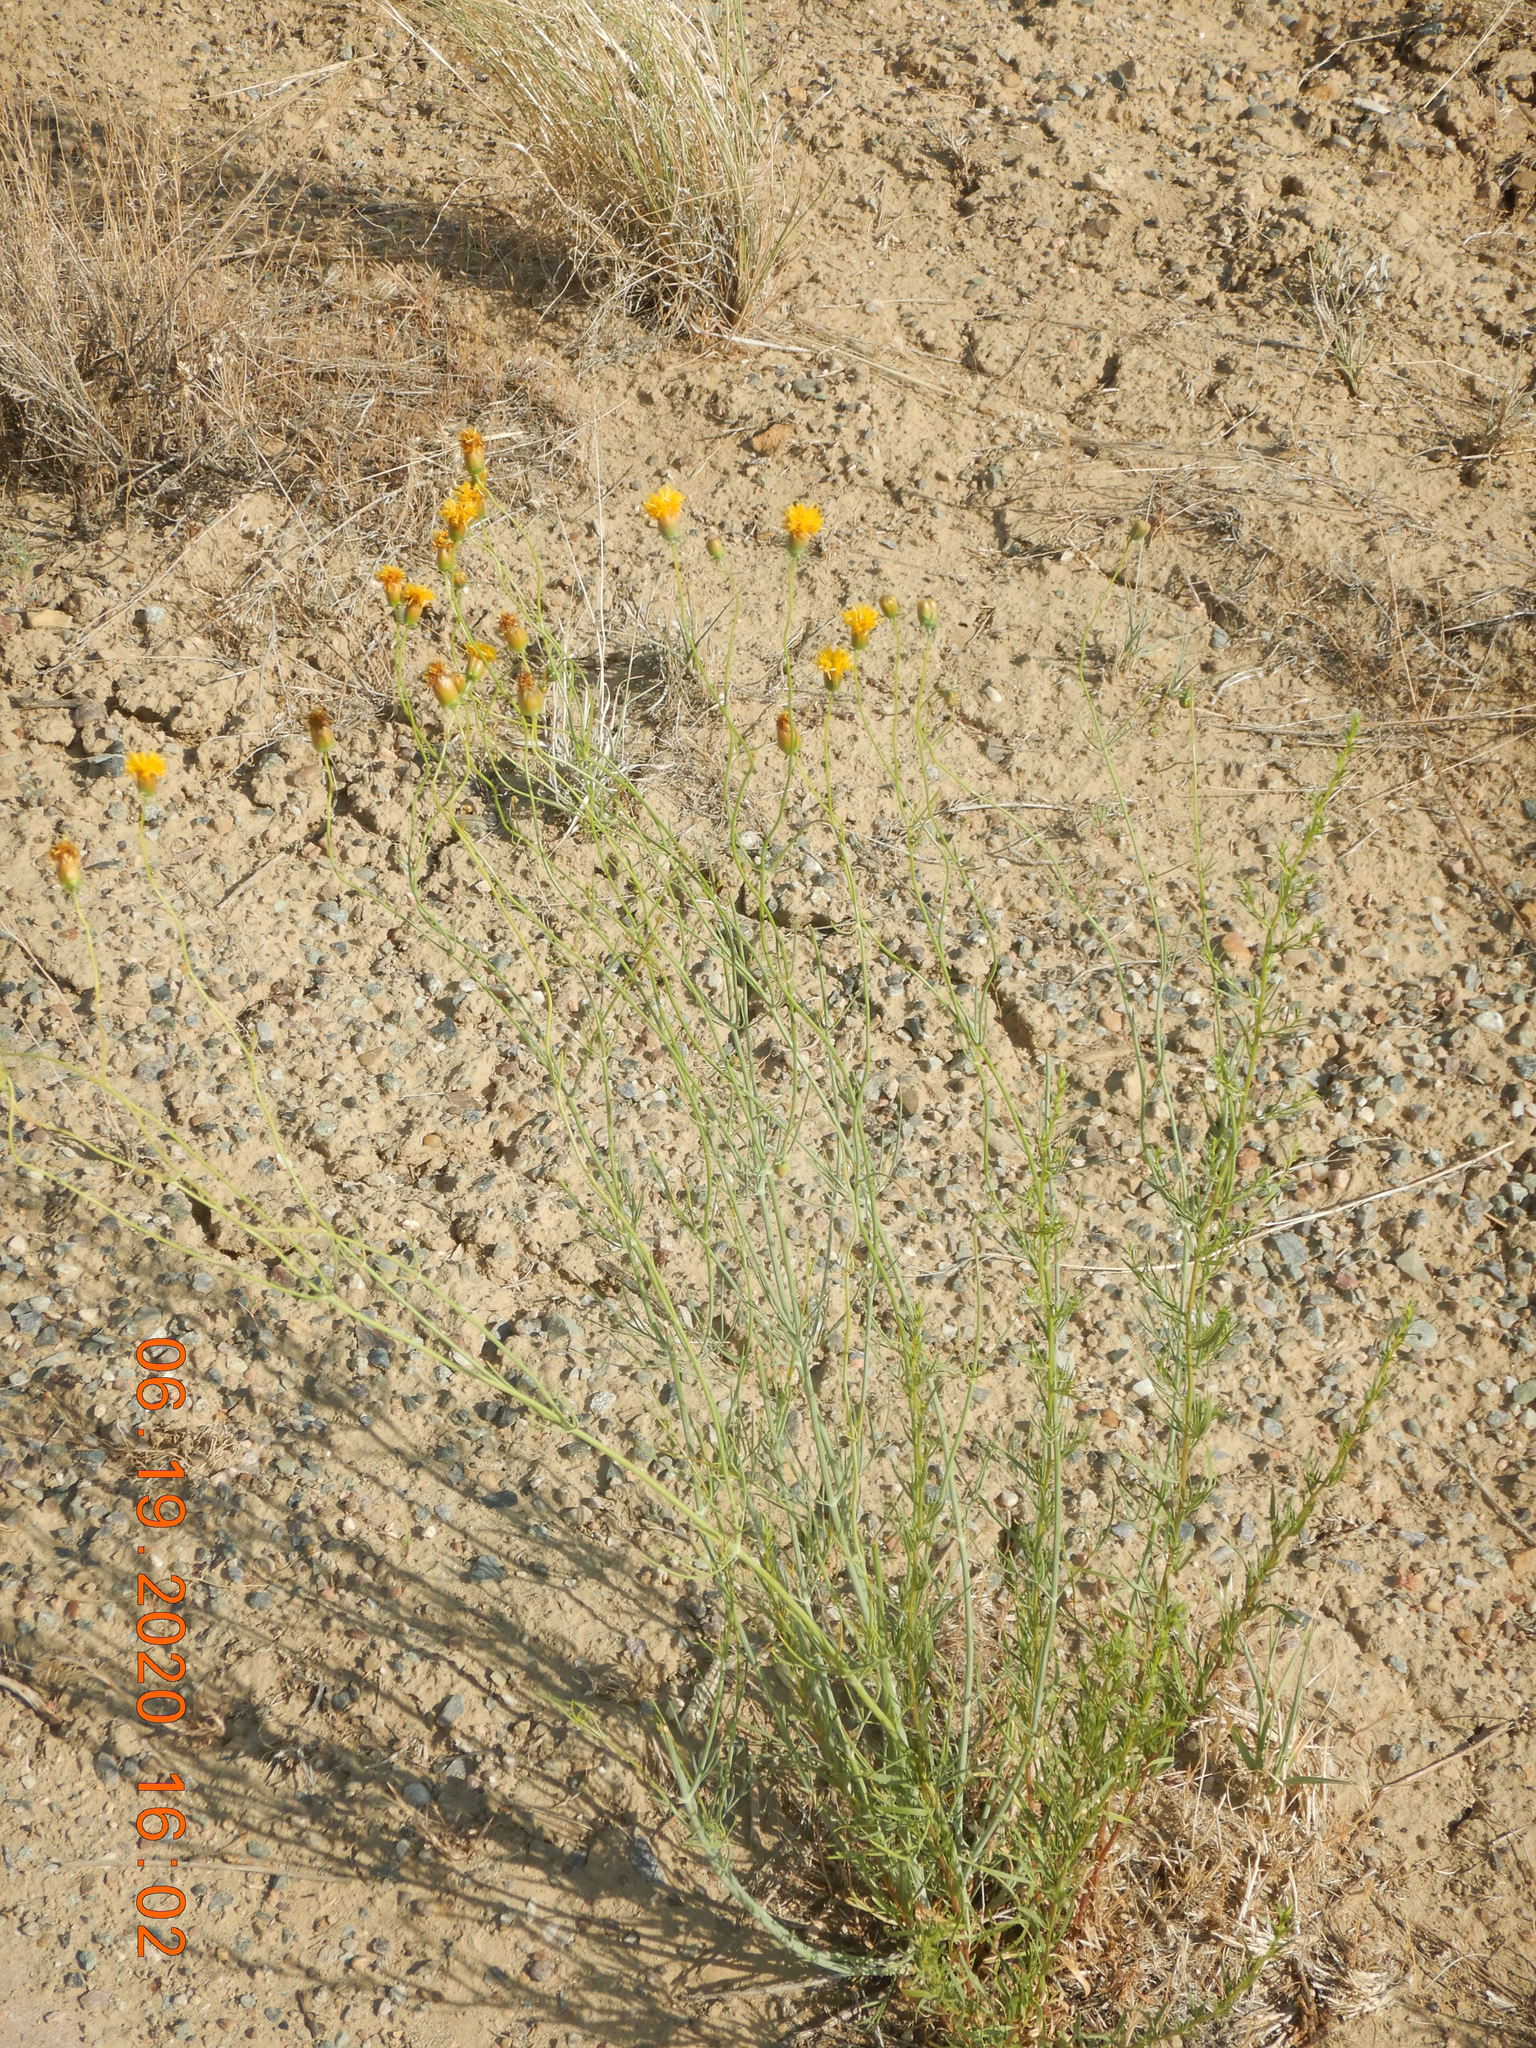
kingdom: Plantae
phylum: Tracheophyta
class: Magnoliopsida
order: Asterales
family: Asteraceae
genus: Thelesperma
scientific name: Thelesperma megapotamicum
